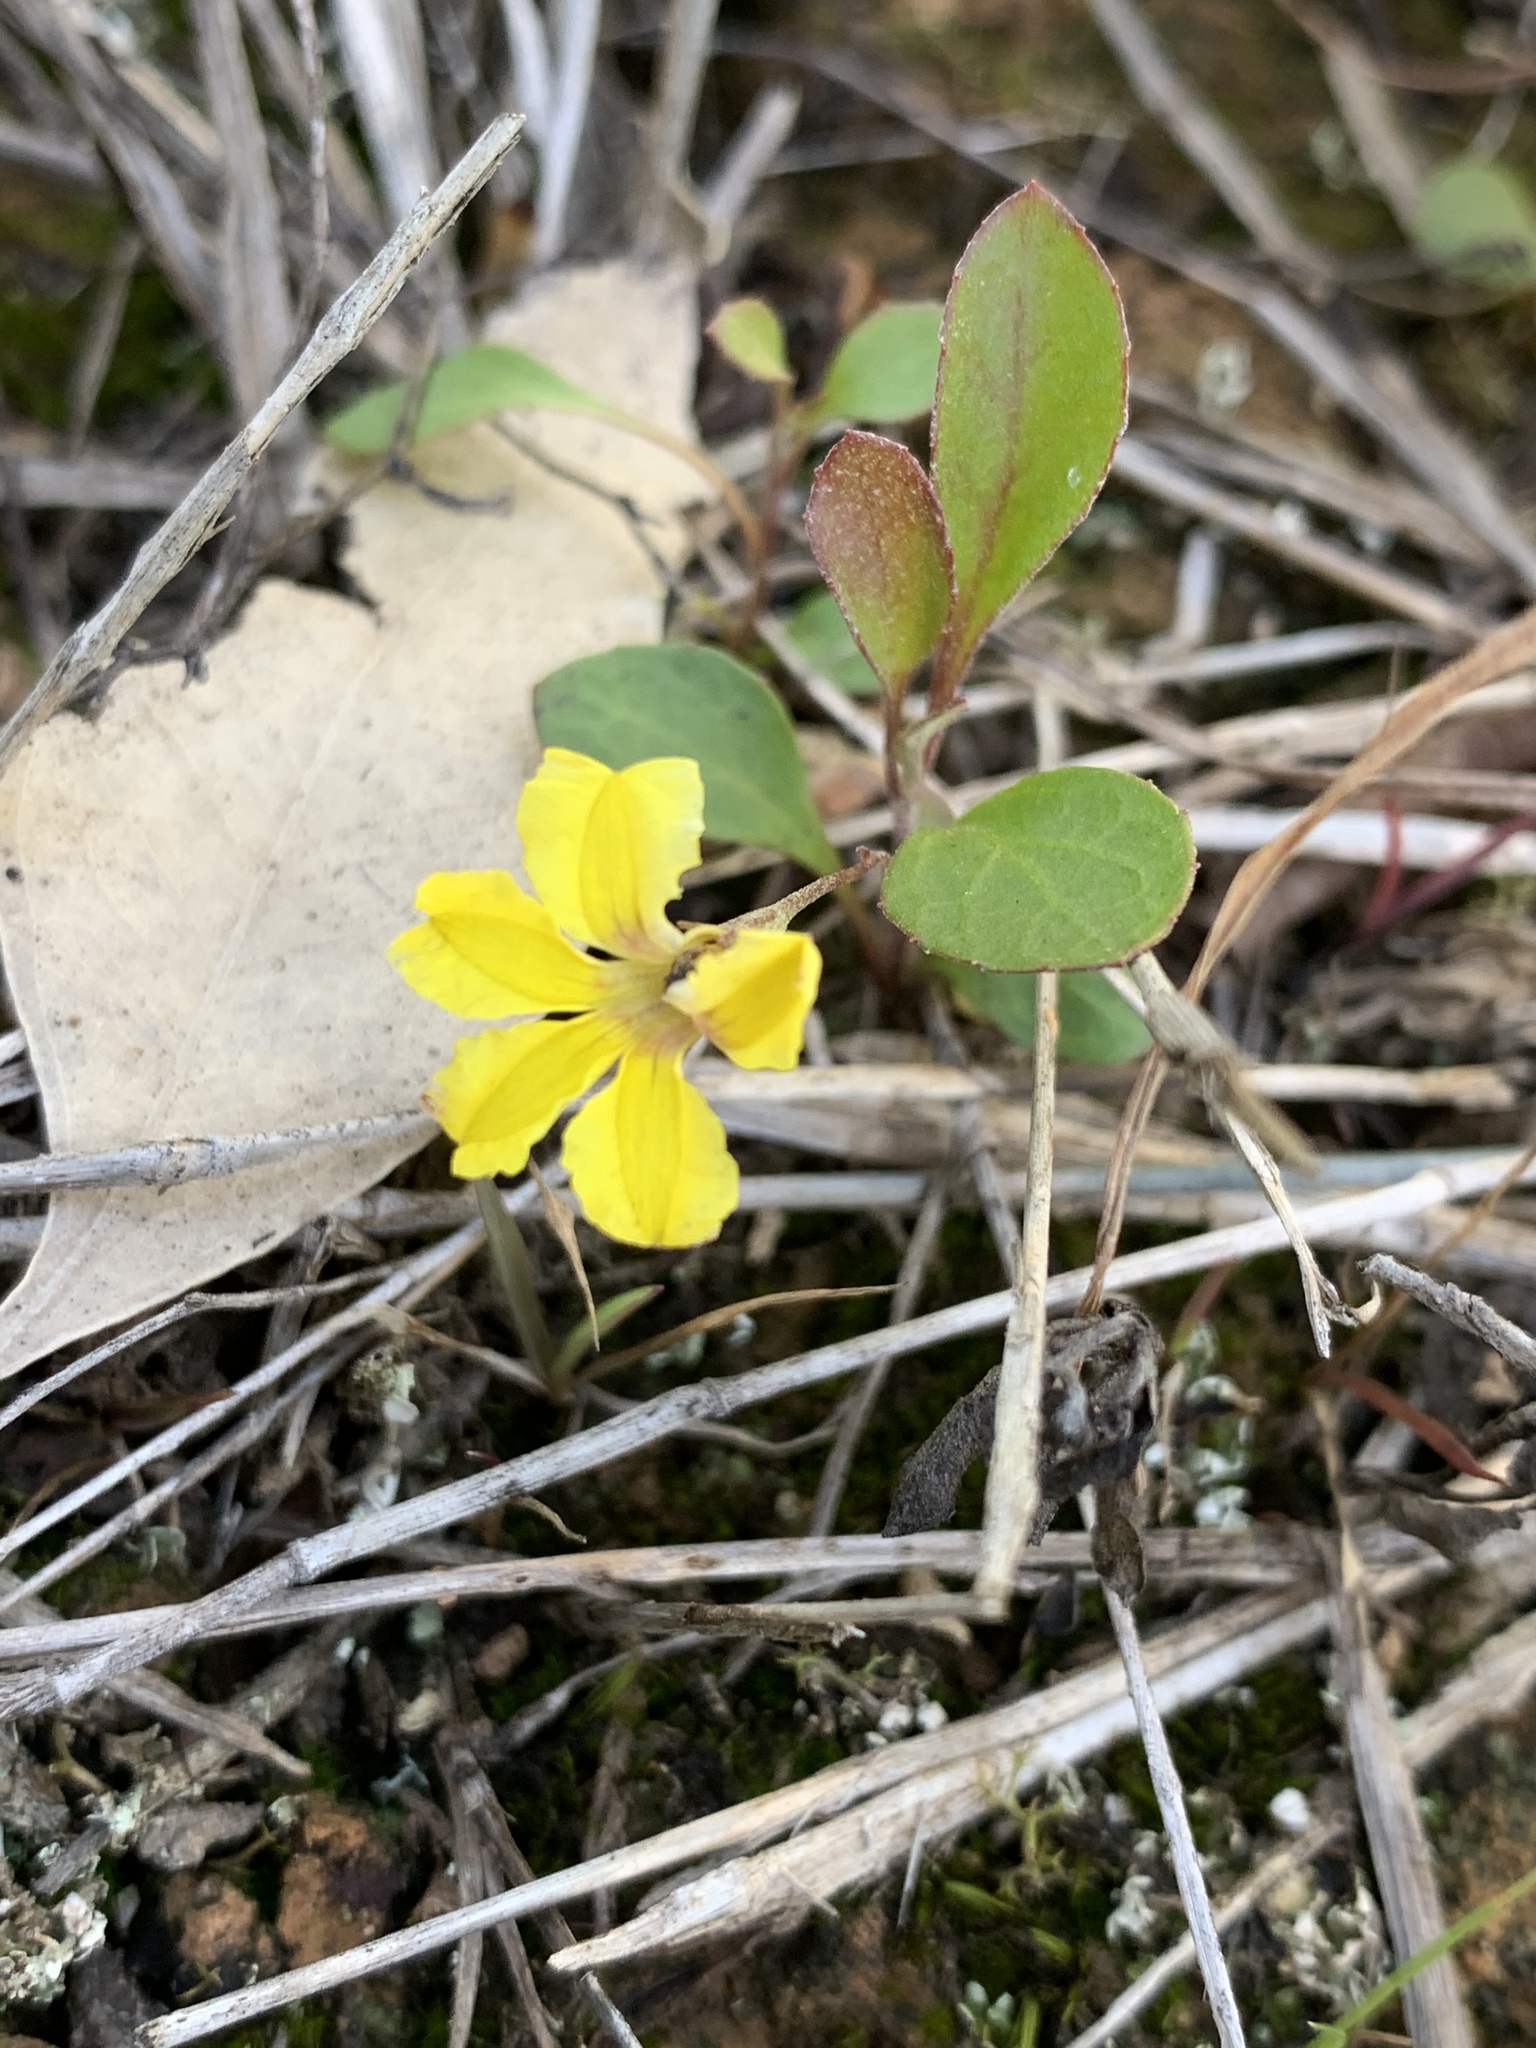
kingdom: Plantae
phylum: Tracheophyta
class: Magnoliopsida
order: Asterales
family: Goodeniaceae
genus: Goodenia
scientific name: Goodenia hederacea
